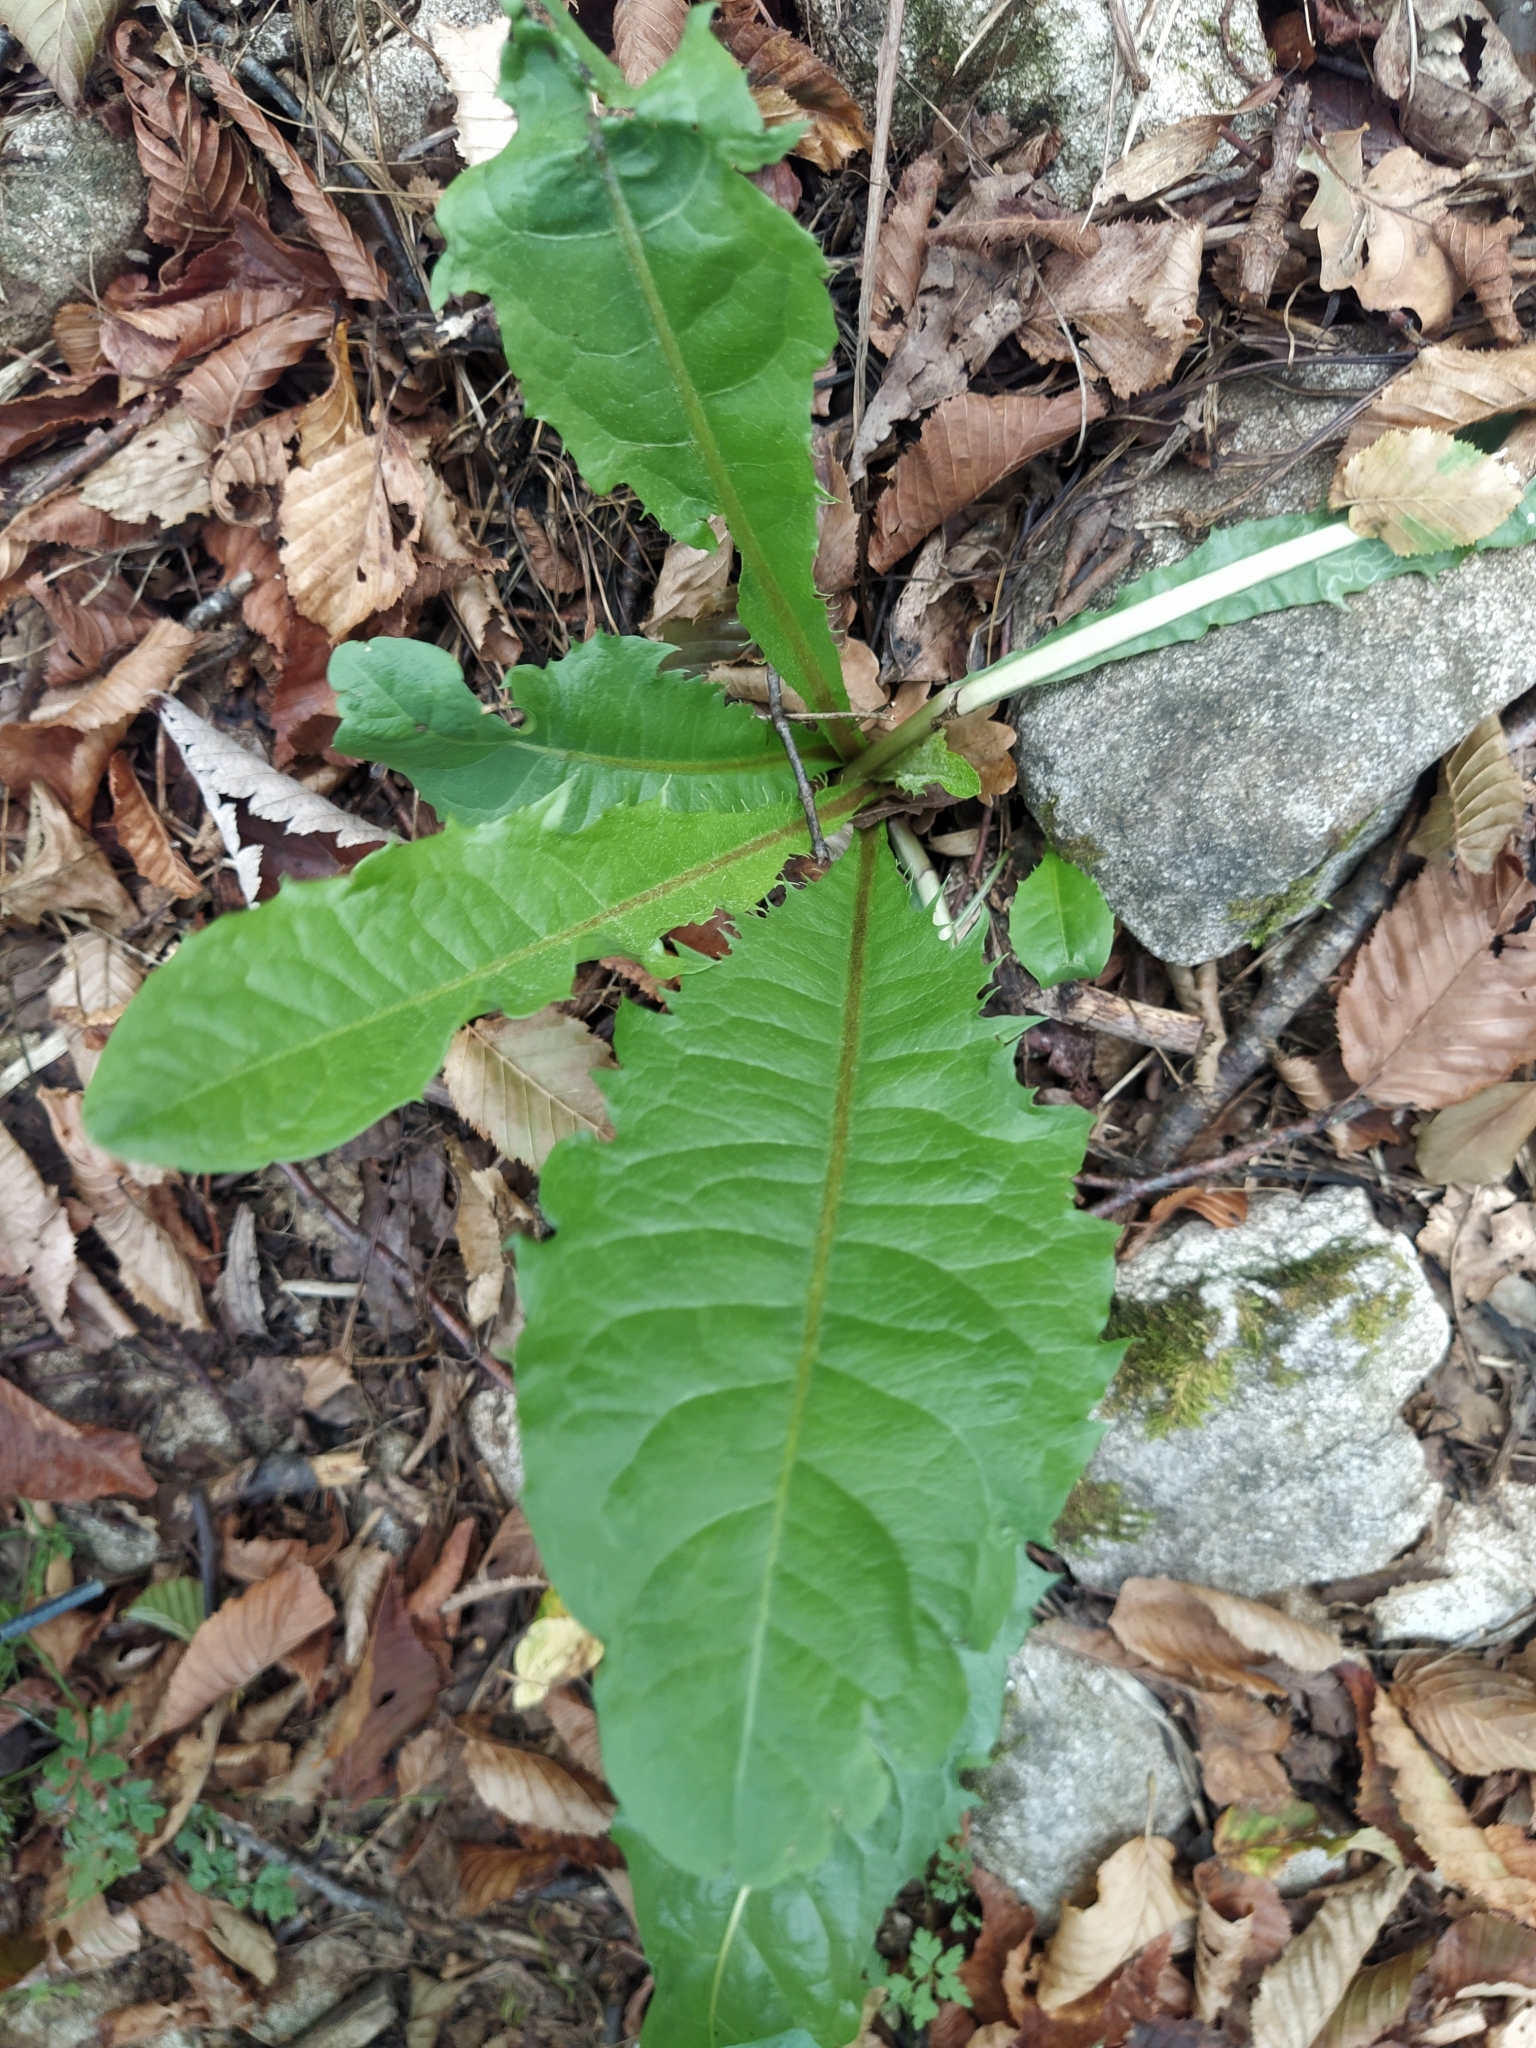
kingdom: Plantae
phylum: Tracheophyta
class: Magnoliopsida
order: Asterales
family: Asteraceae
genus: Taraxacum
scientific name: Taraxacum officinale
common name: Common dandelion
